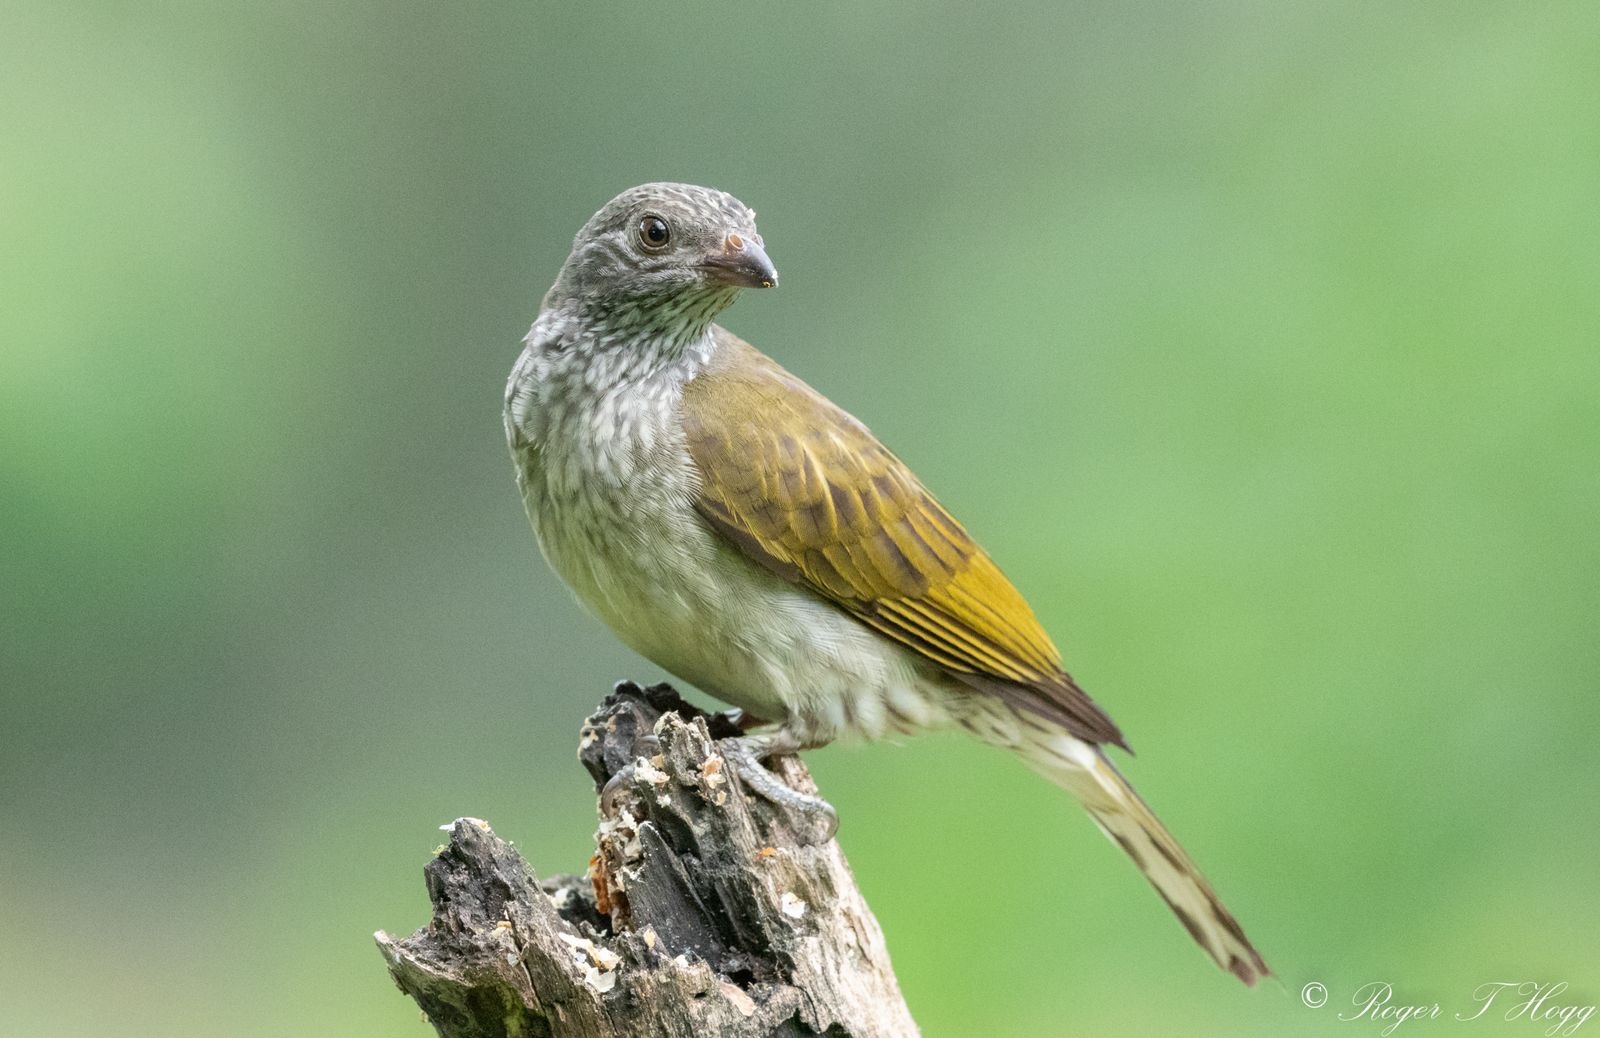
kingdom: Animalia
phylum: Chordata
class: Aves
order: Piciformes
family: Indicatoridae
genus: Indicator
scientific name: Indicator variegatus
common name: Scaly-throated honeyguide
